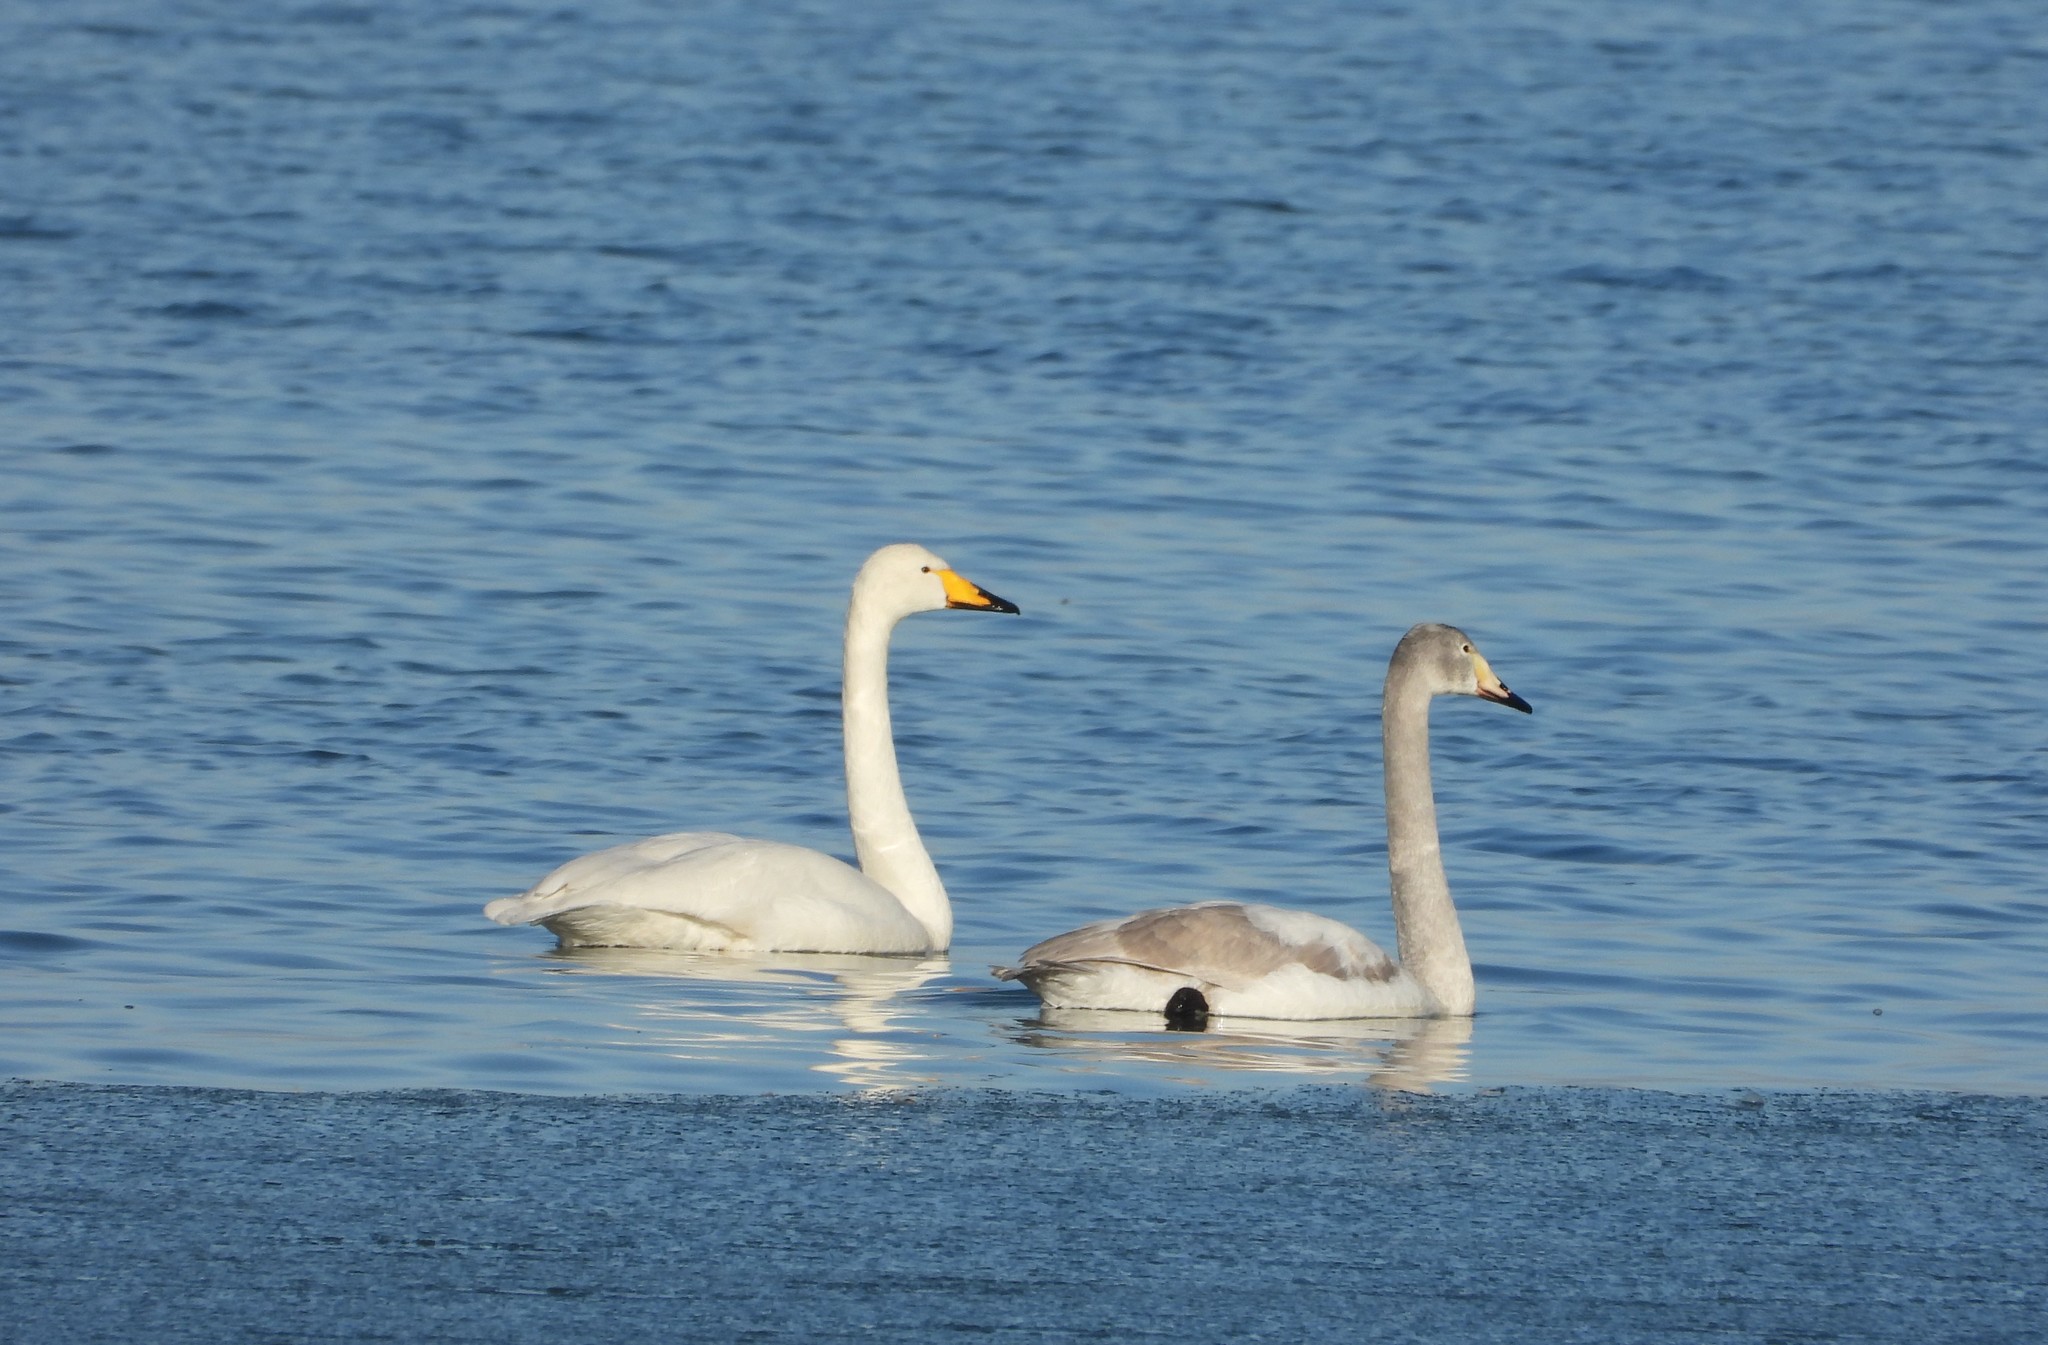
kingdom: Animalia
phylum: Chordata
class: Aves
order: Anseriformes
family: Anatidae
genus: Cygnus
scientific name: Cygnus cygnus
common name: Whooper swan
